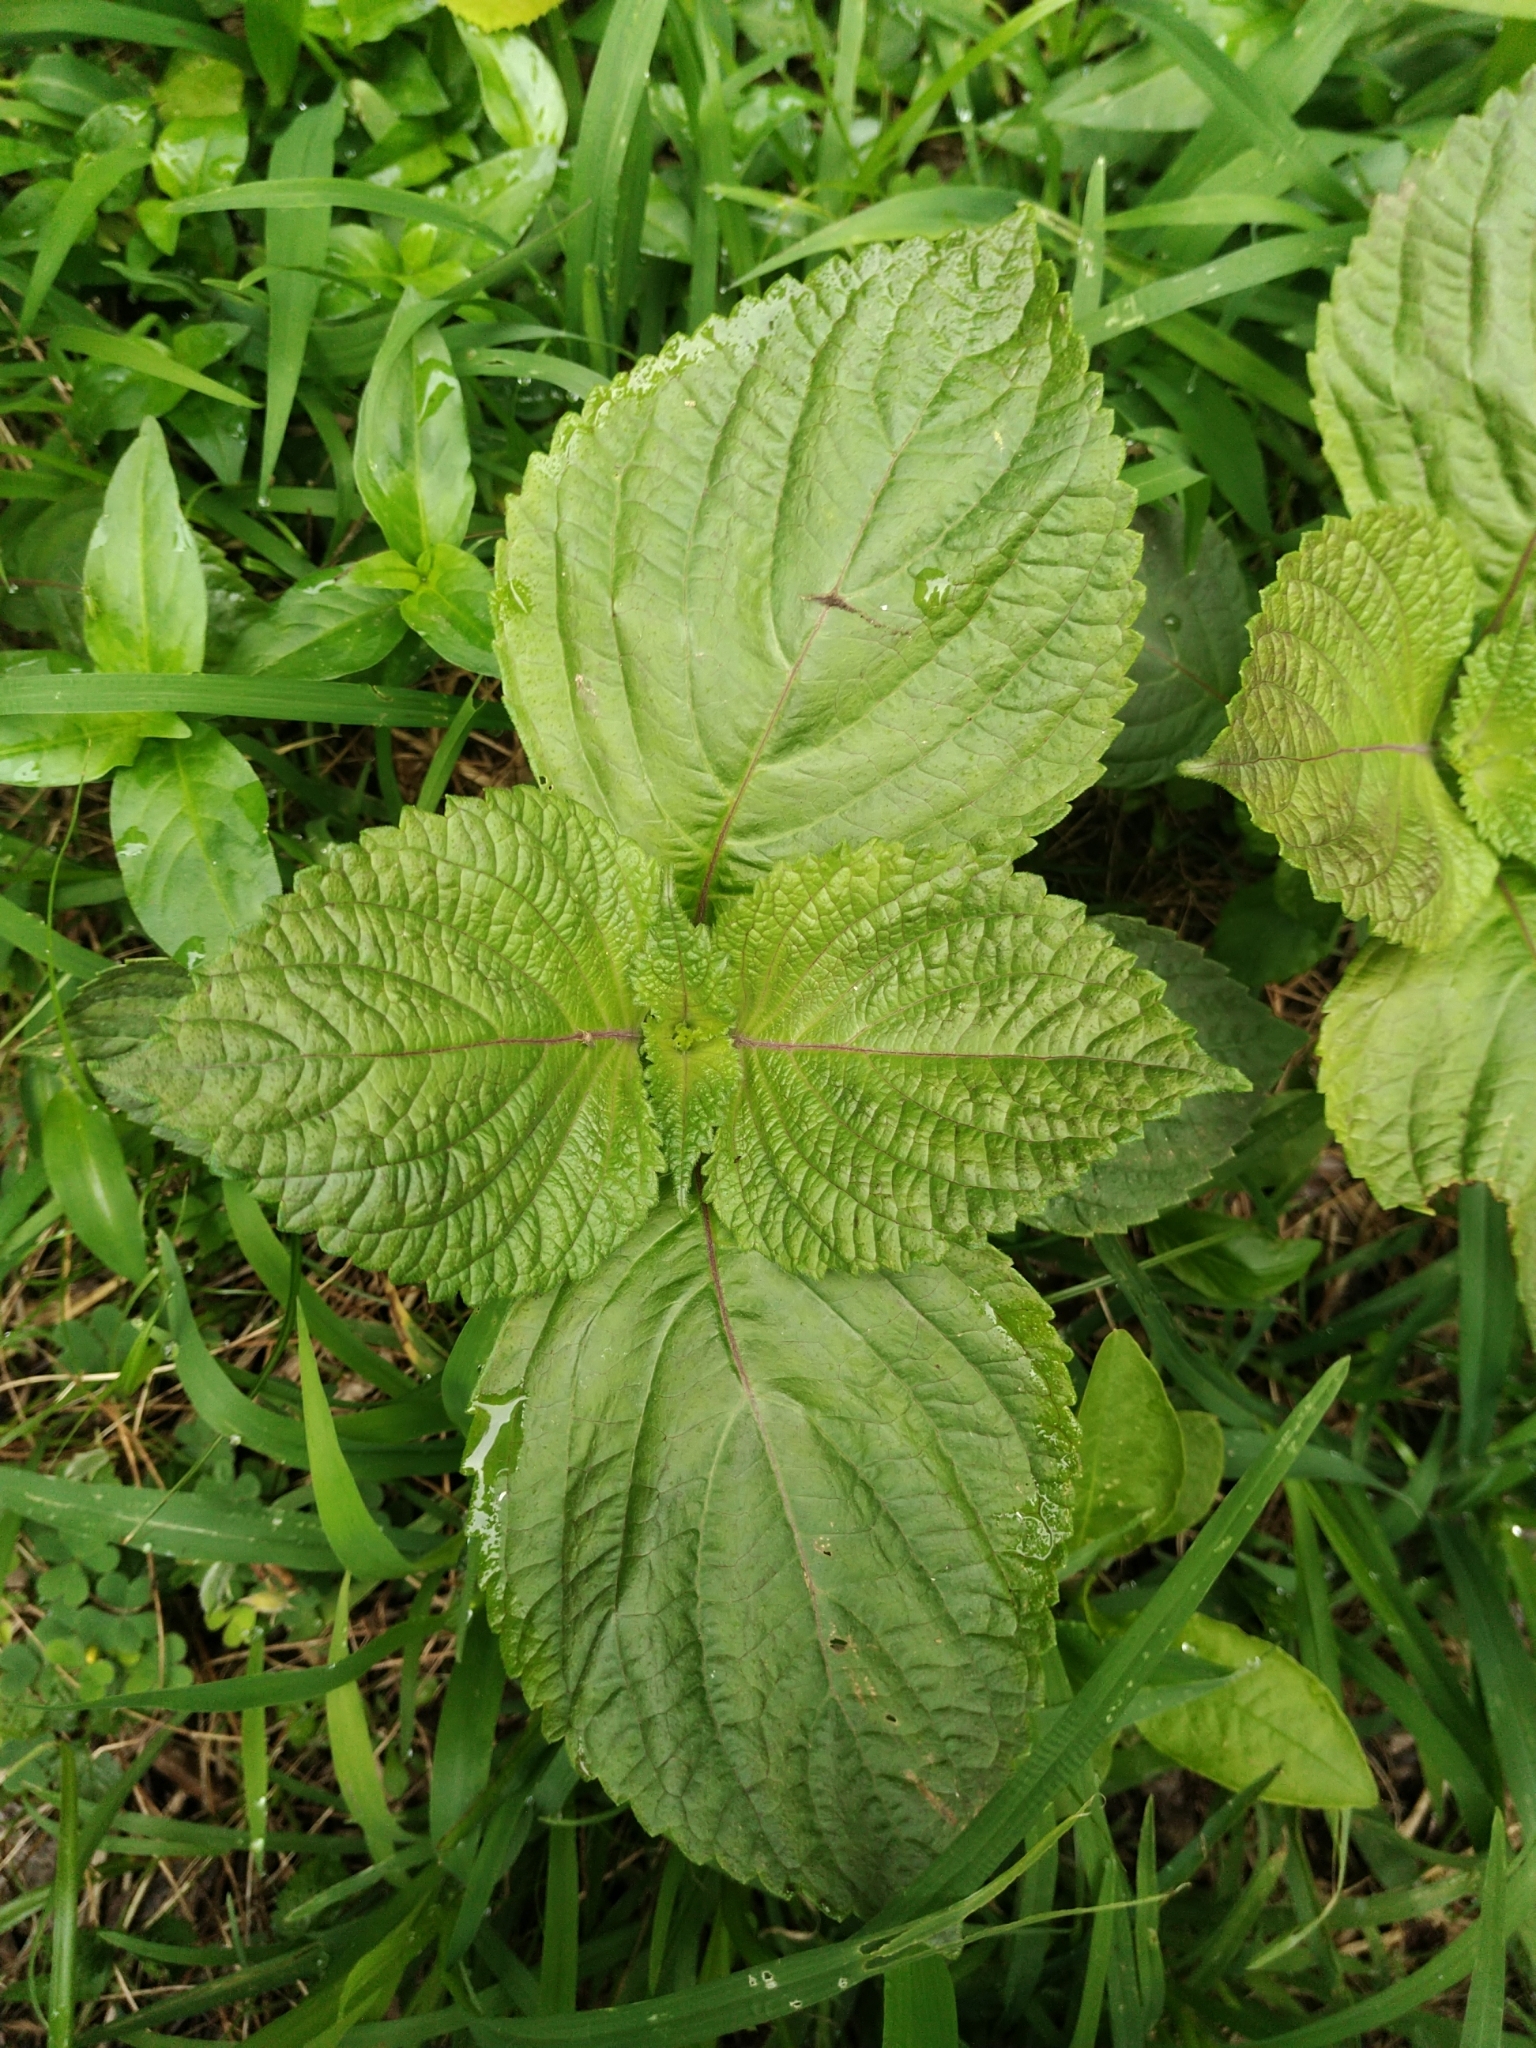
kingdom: Plantae
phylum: Tracheophyta
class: Magnoliopsida
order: Lamiales
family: Lamiaceae
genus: Perilla
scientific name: Perilla frutescens
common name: Perilla
